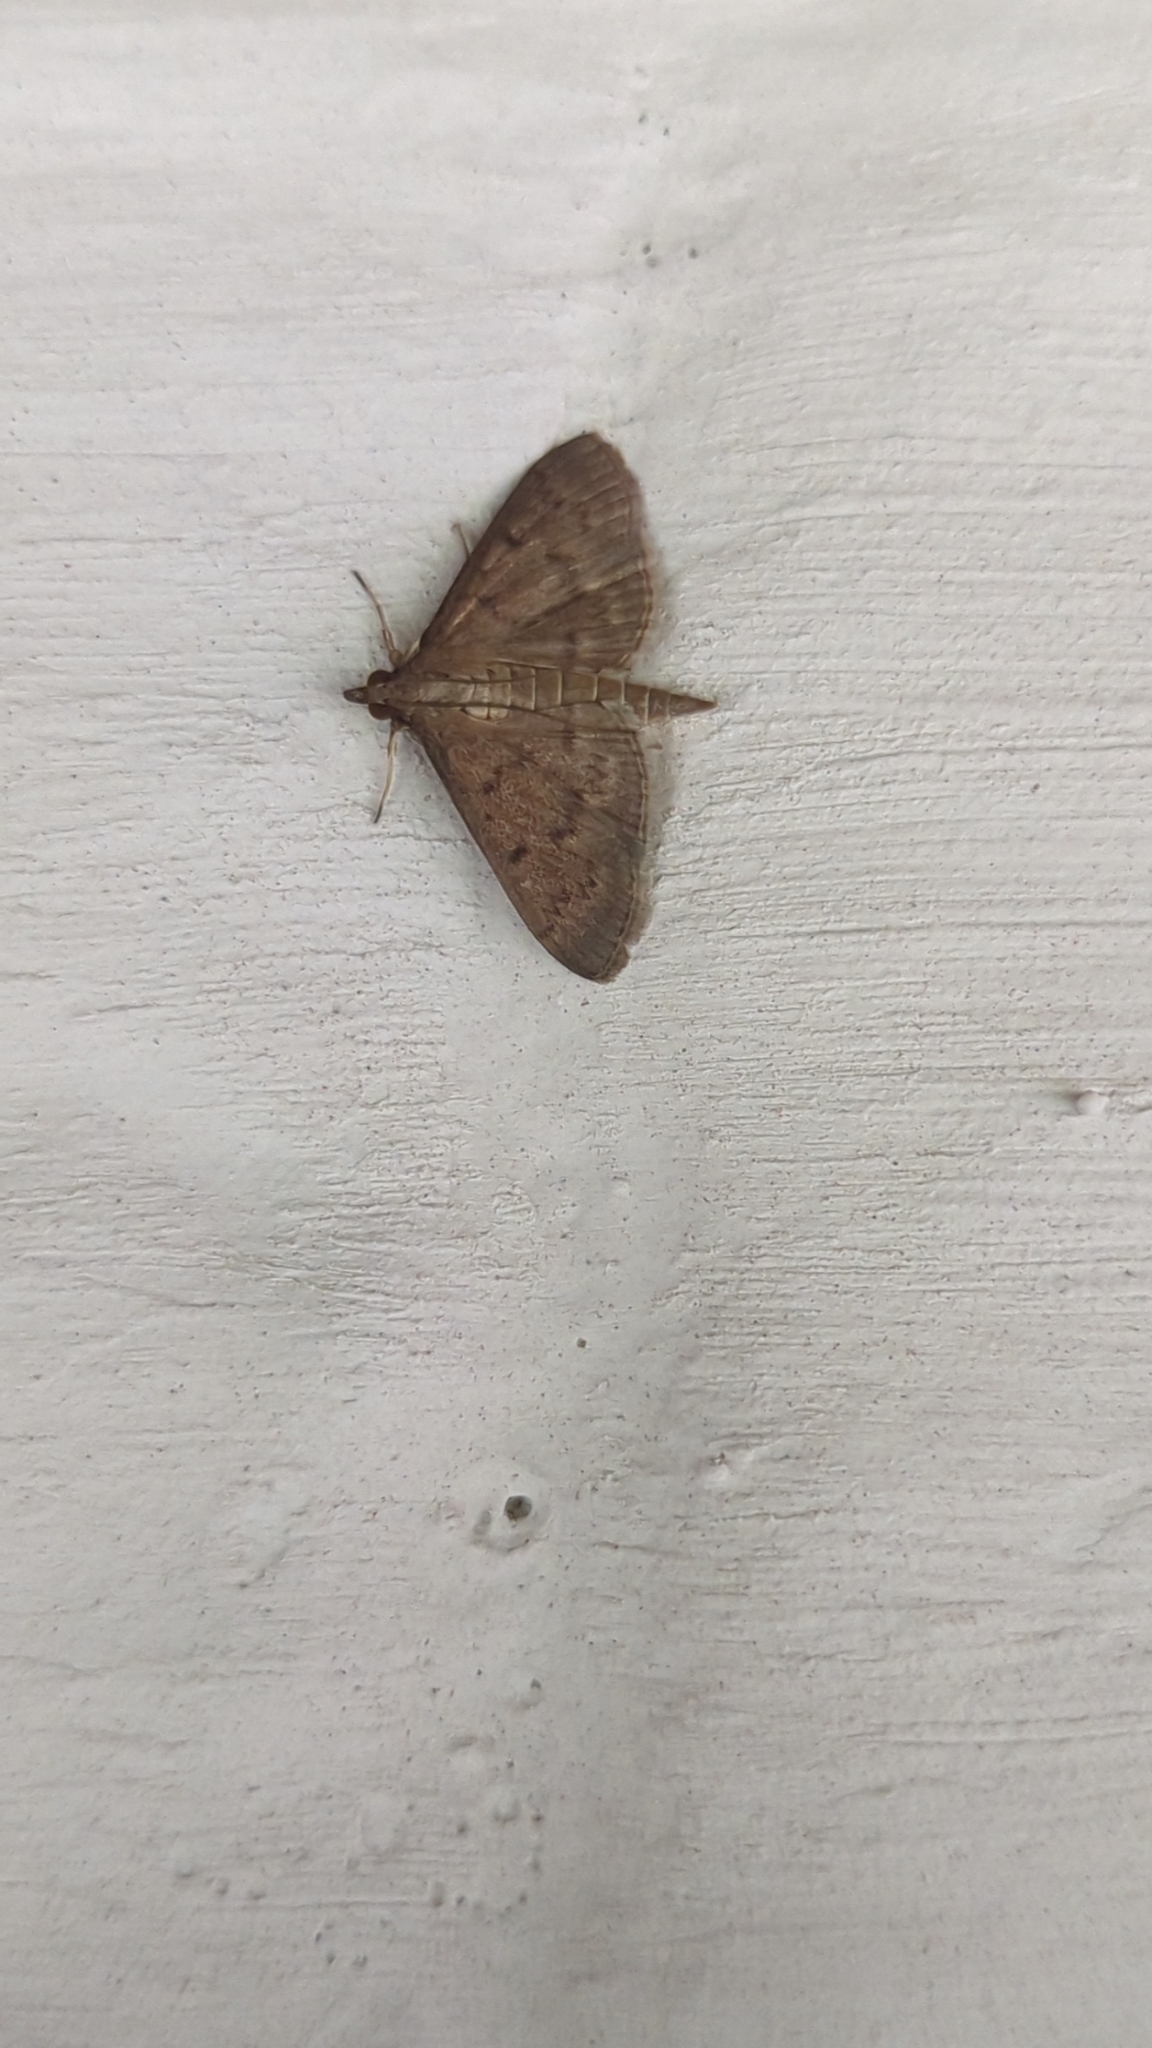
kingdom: Animalia
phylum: Arthropoda
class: Insecta
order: Lepidoptera
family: Crambidae
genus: Herpetogramma
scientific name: Herpetogramma licarsisalis
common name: Grass webworm
